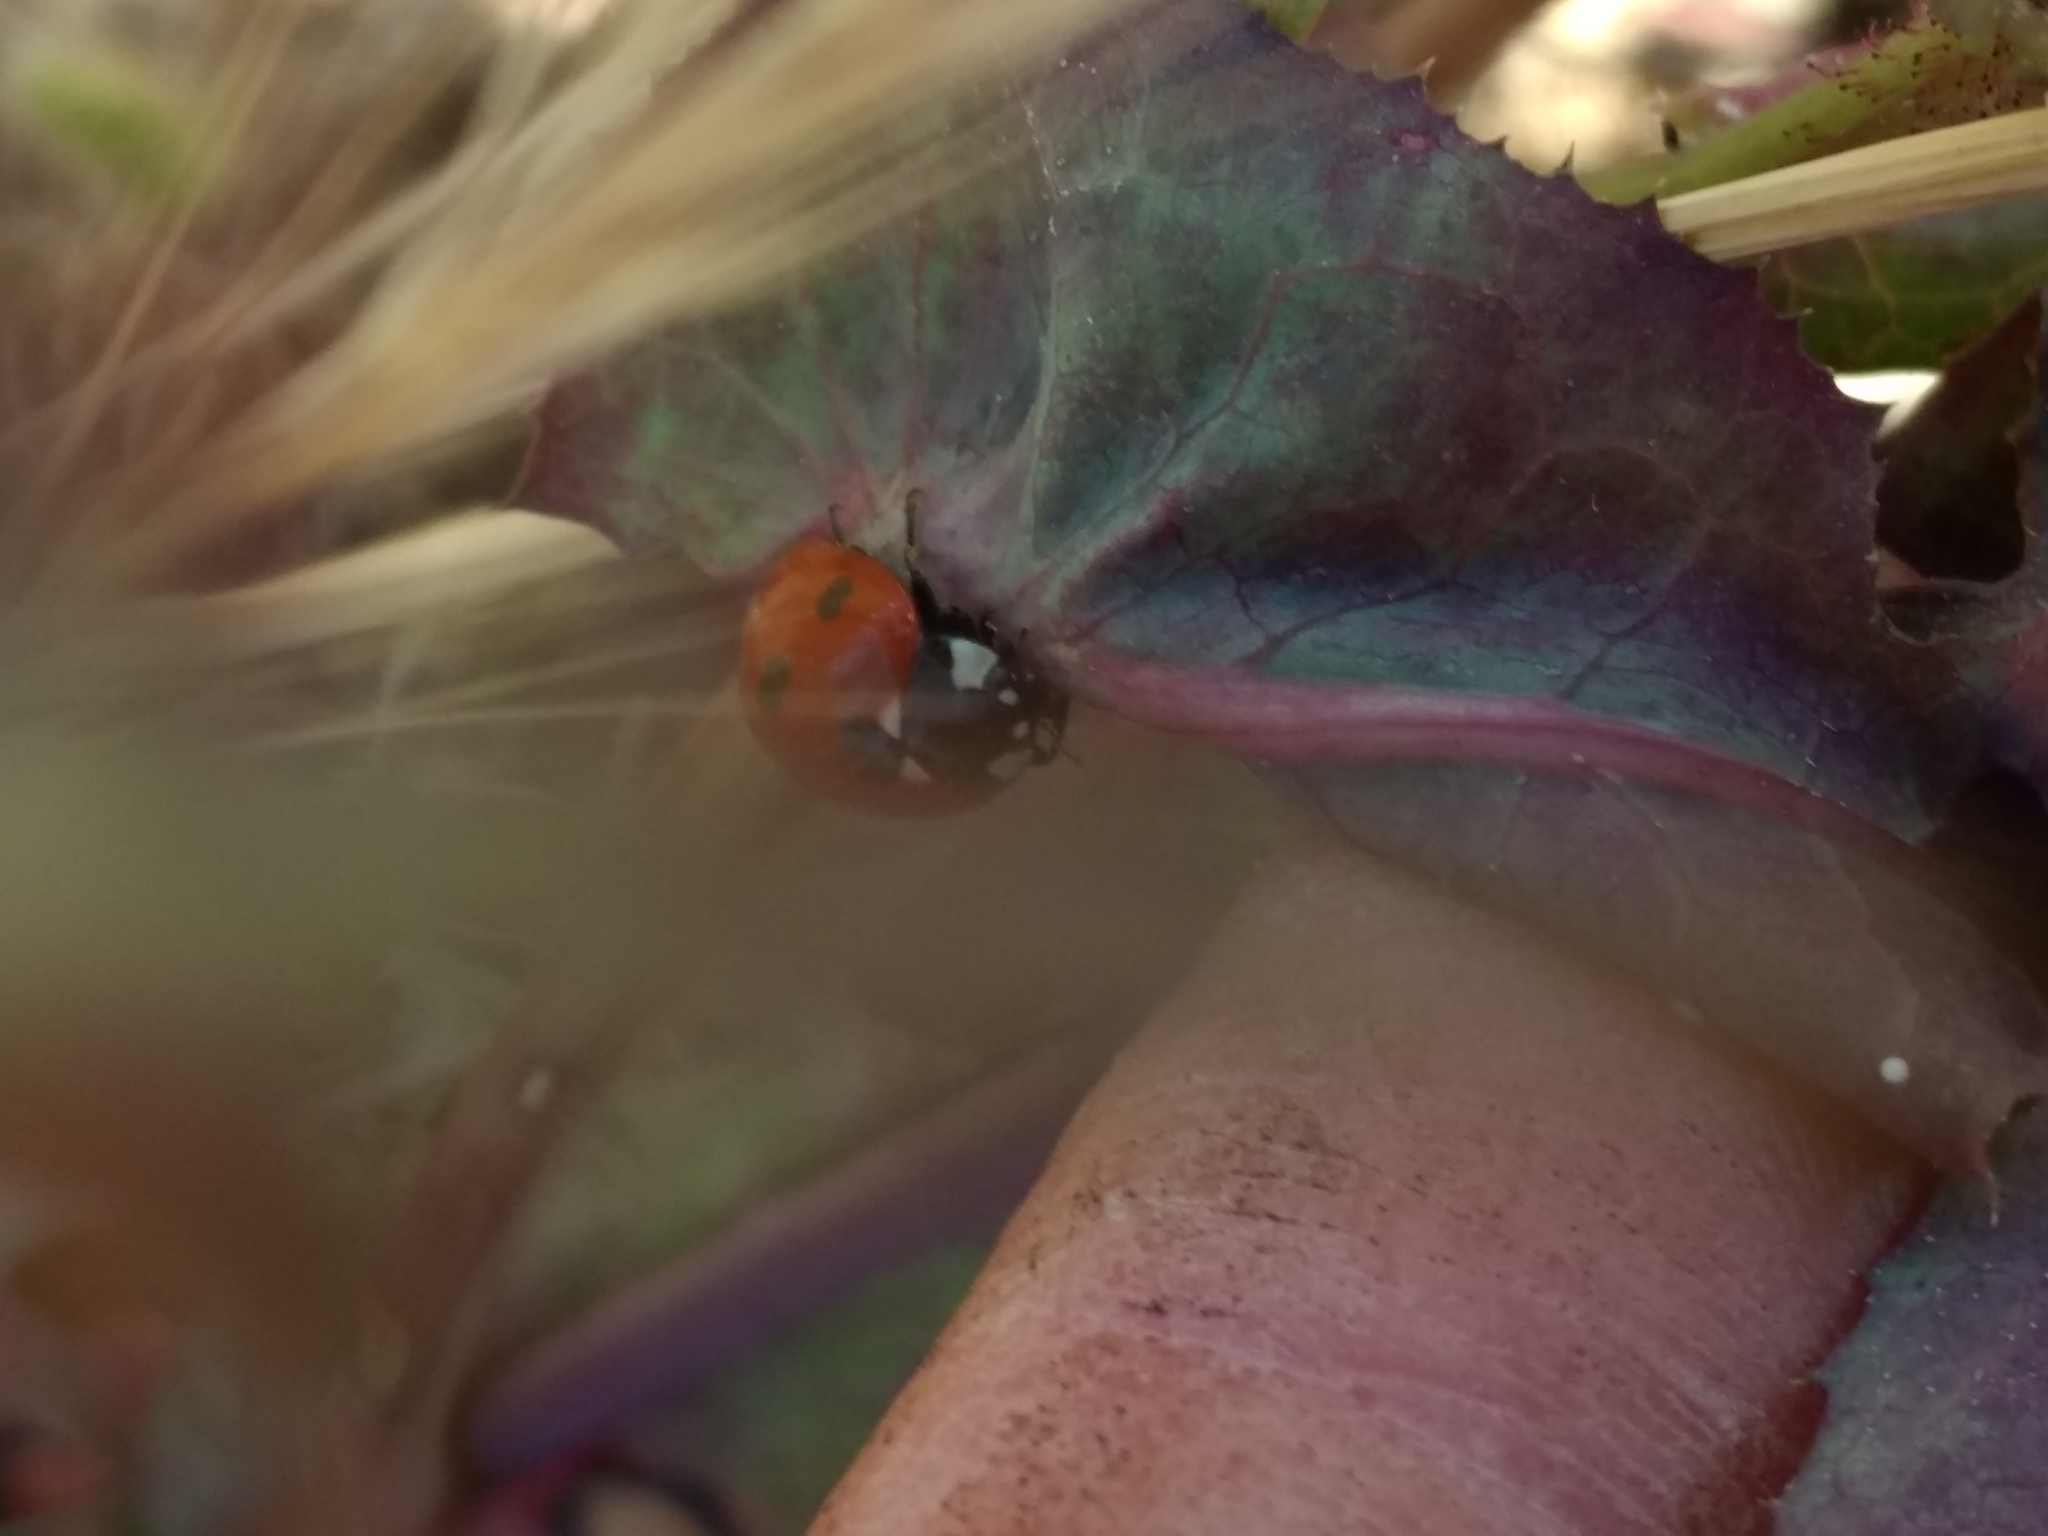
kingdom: Animalia
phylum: Arthropoda
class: Insecta
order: Coleoptera
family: Coccinellidae
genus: Coccinella
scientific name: Coccinella septempunctata
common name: Sevenspotted lady beetle
